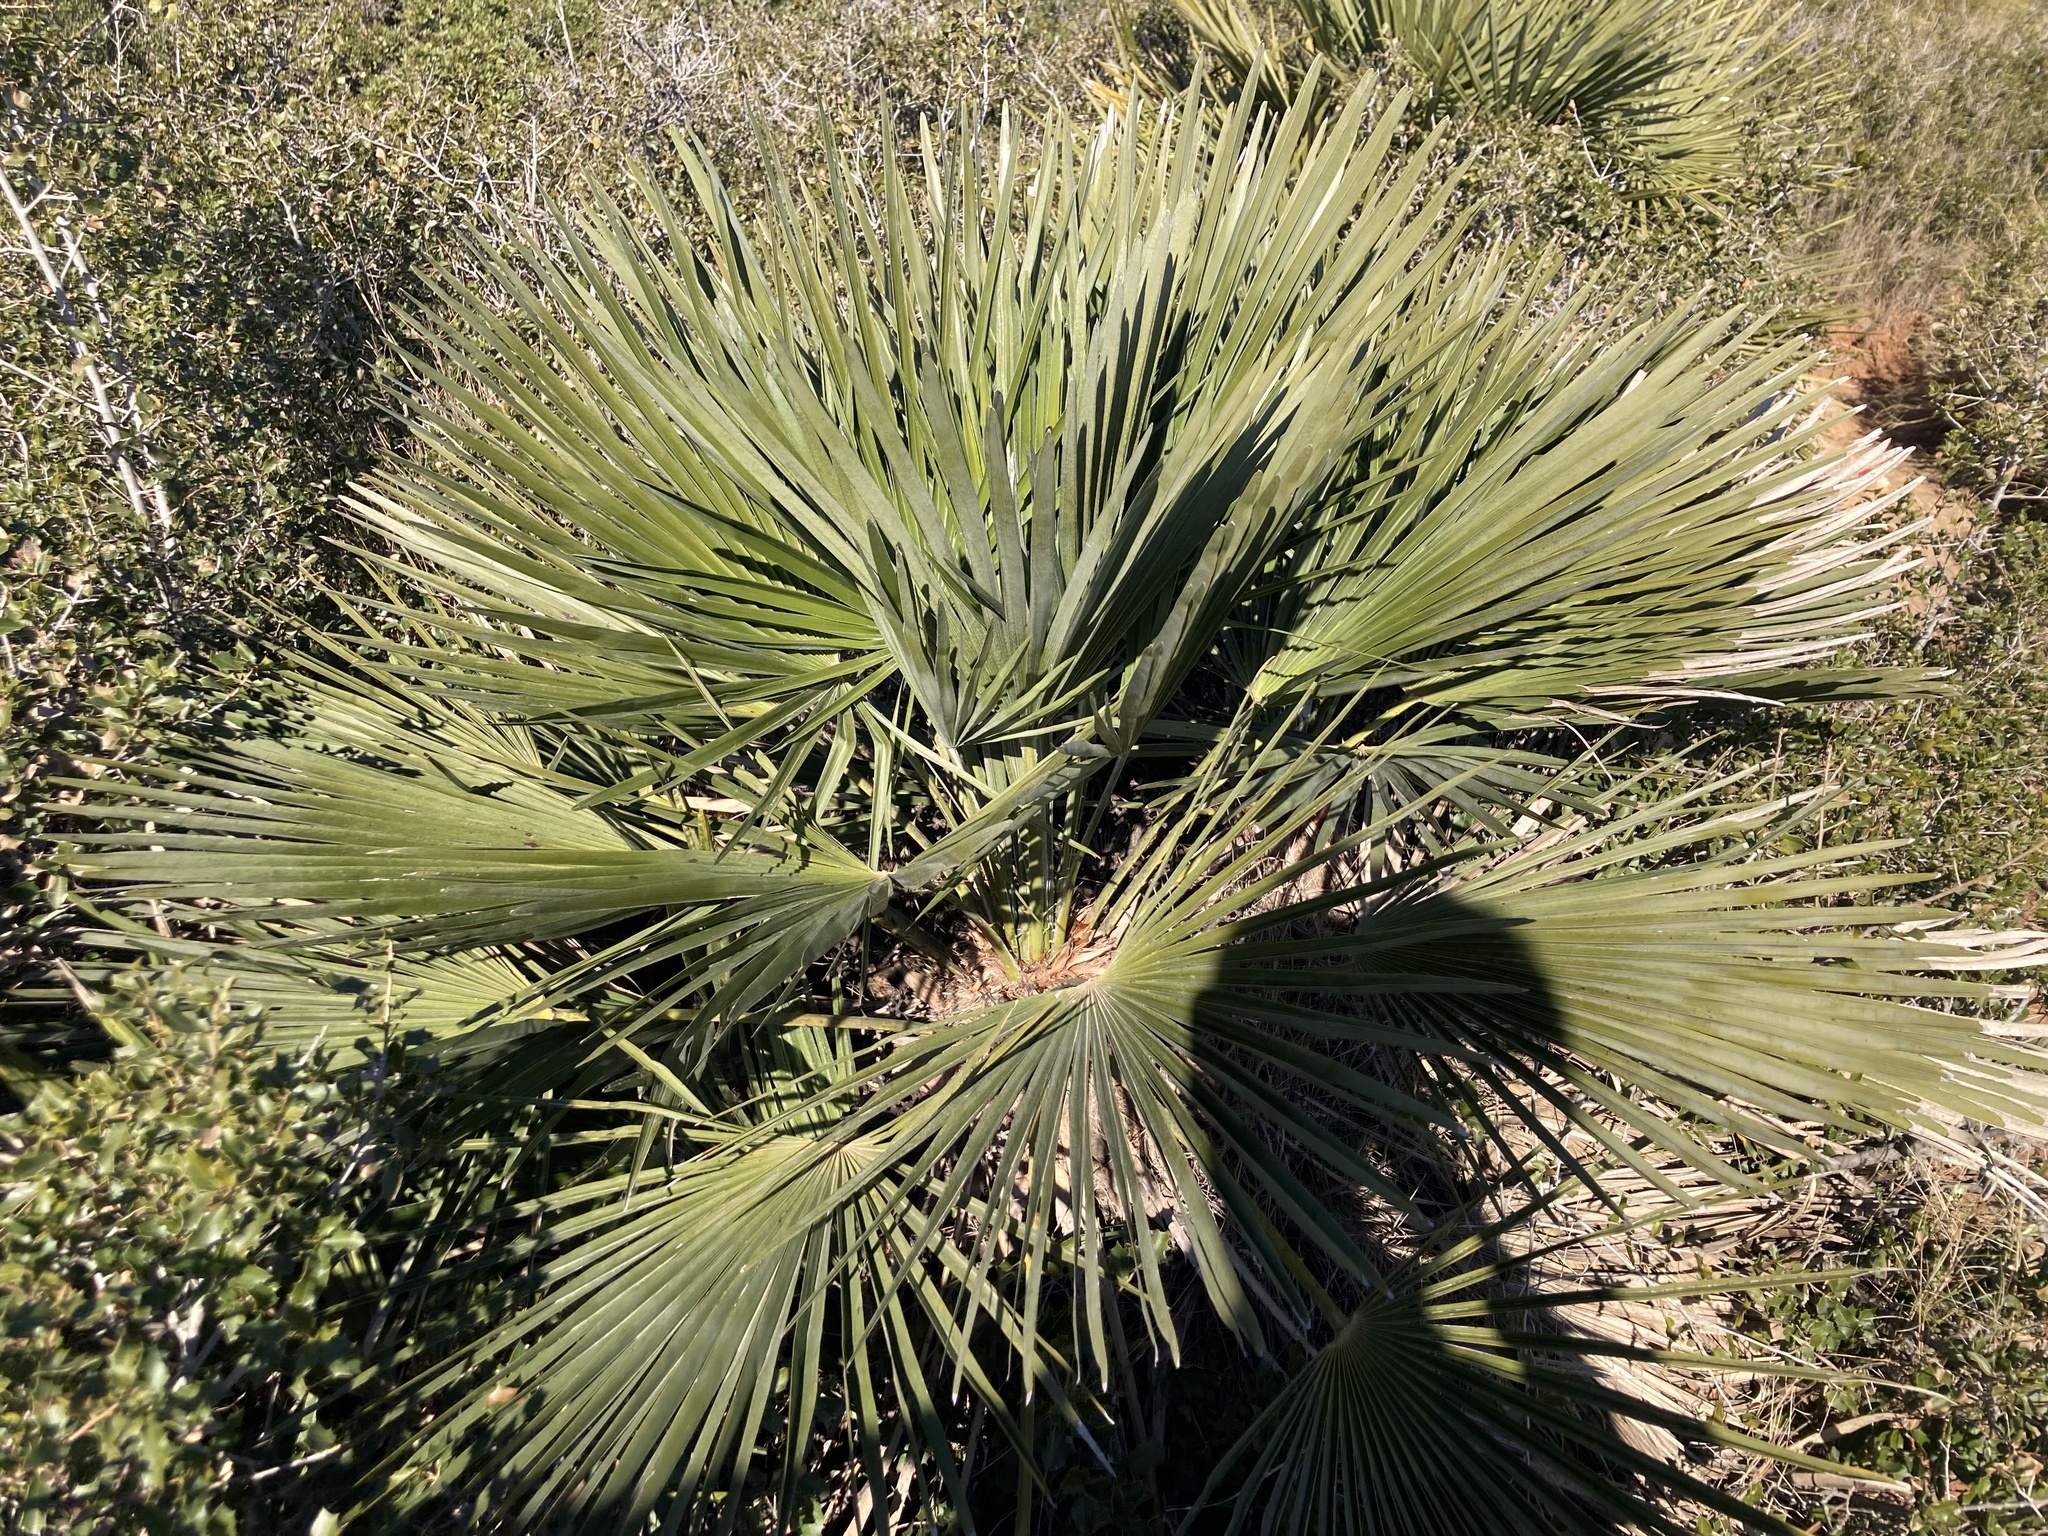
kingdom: Plantae
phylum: Tracheophyta
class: Liliopsida
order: Arecales
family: Arecaceae
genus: Chamaerops
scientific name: Chamaerops humilis
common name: Dwarf fan palm
